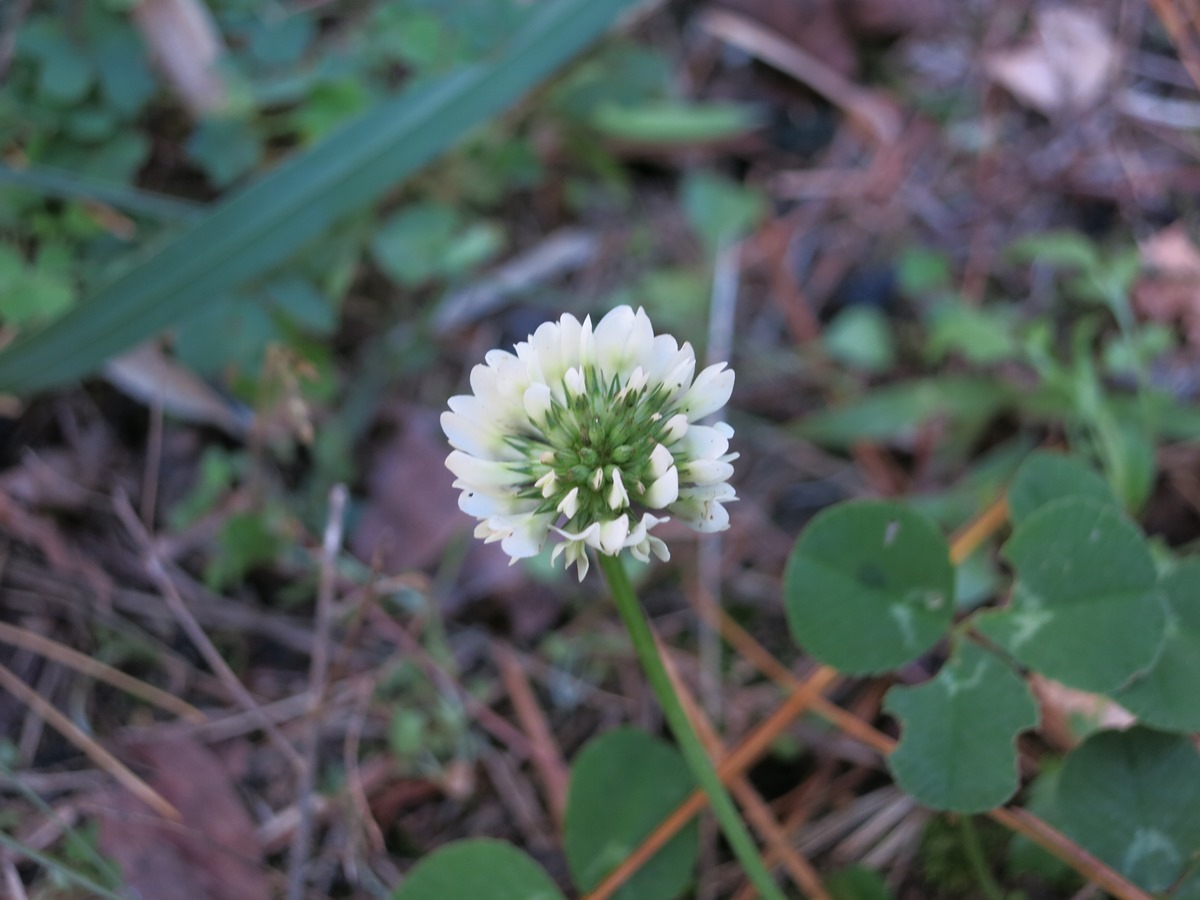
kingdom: Plantae
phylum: Tracheophyta
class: Magnoliopsida
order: Fabales
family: Fabaceae
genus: Trifolium
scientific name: Trifolium repens
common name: White clover
